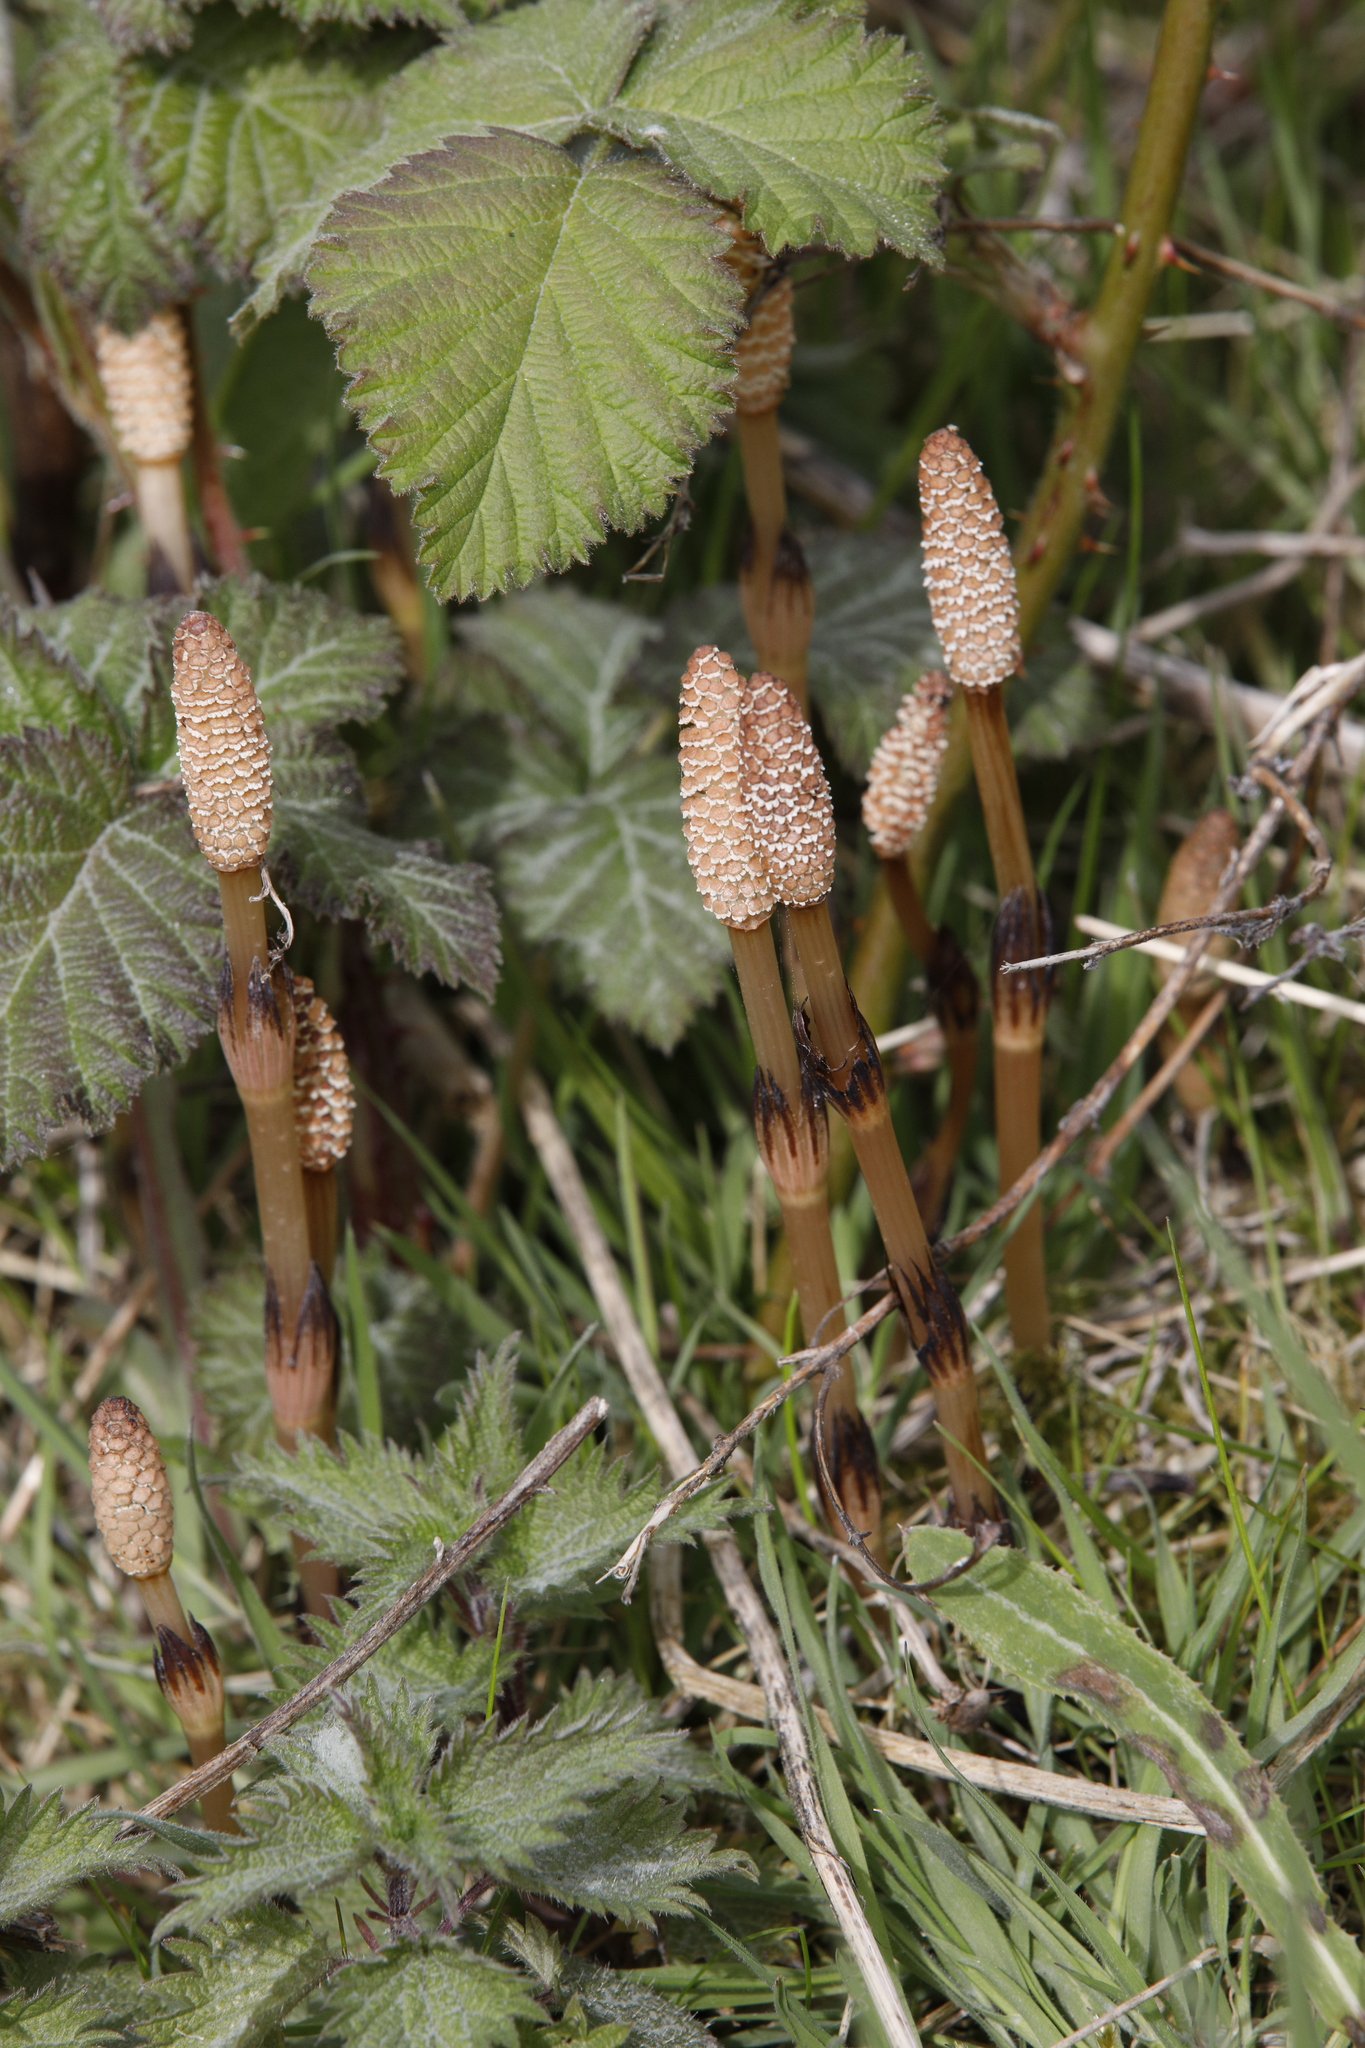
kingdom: Plantae
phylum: Tracheophyta
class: Polypodiopsida
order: Equisetales
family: Equisetaceae
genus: Equisetum
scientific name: Equisetum arvense
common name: Field horsetail
